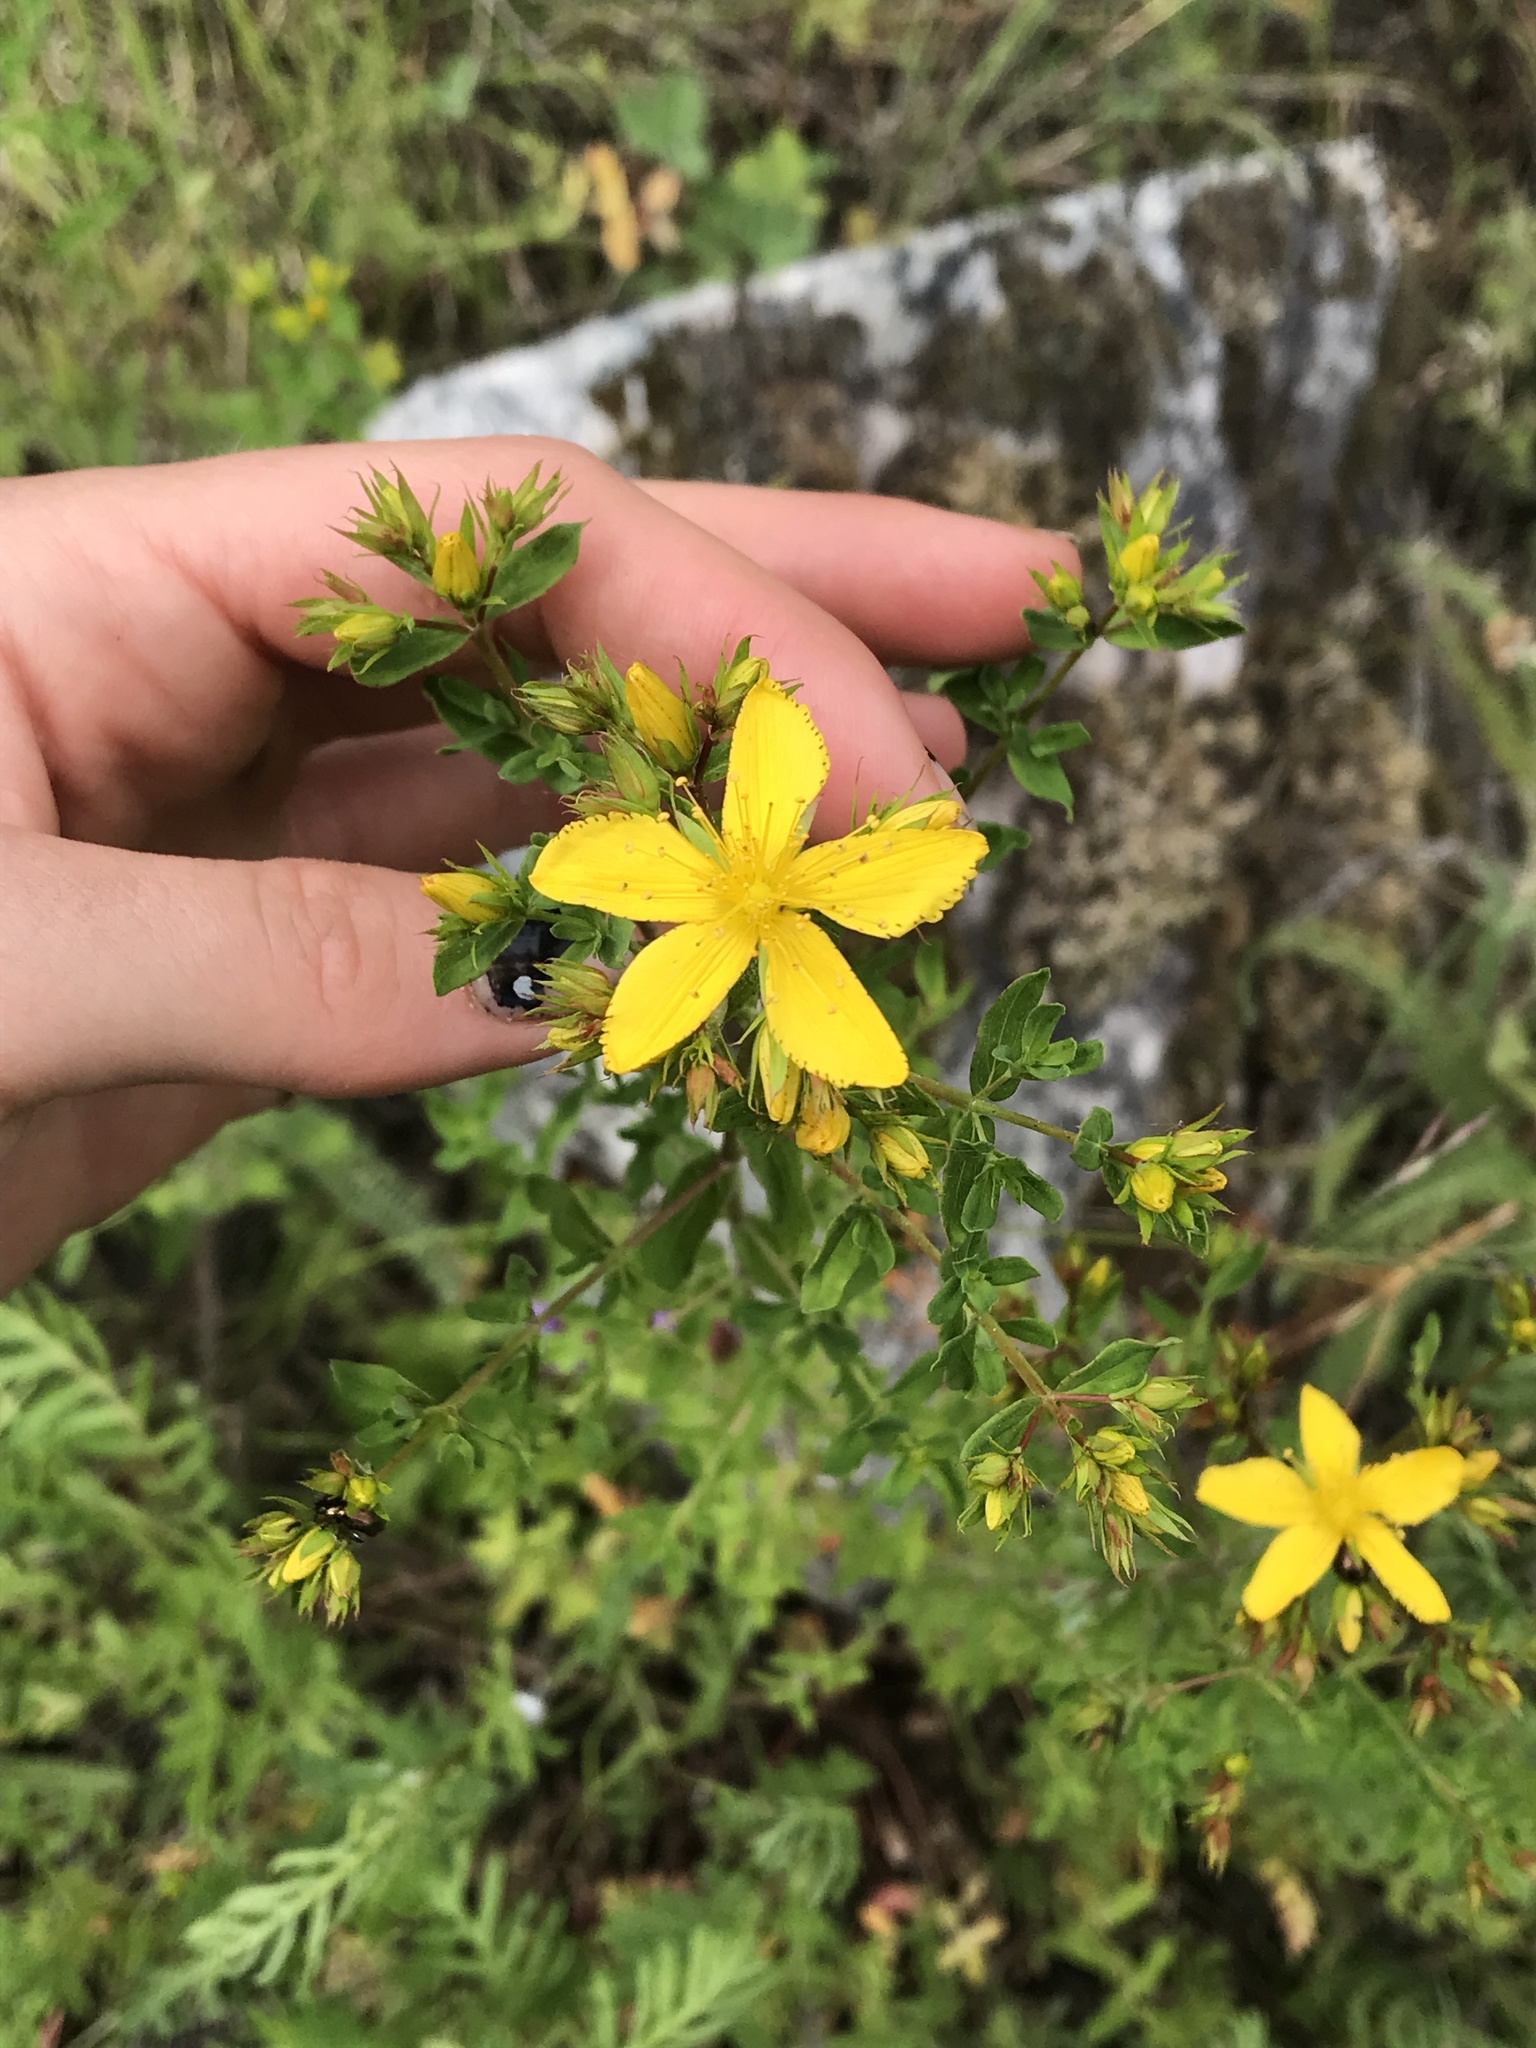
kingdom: Plantae
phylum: Tracheophyta
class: Magnoliopsida
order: Malpighiales
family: Hypericaceae
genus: Hypericum
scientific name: Hypericum perforatum
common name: Common st. johnswort
